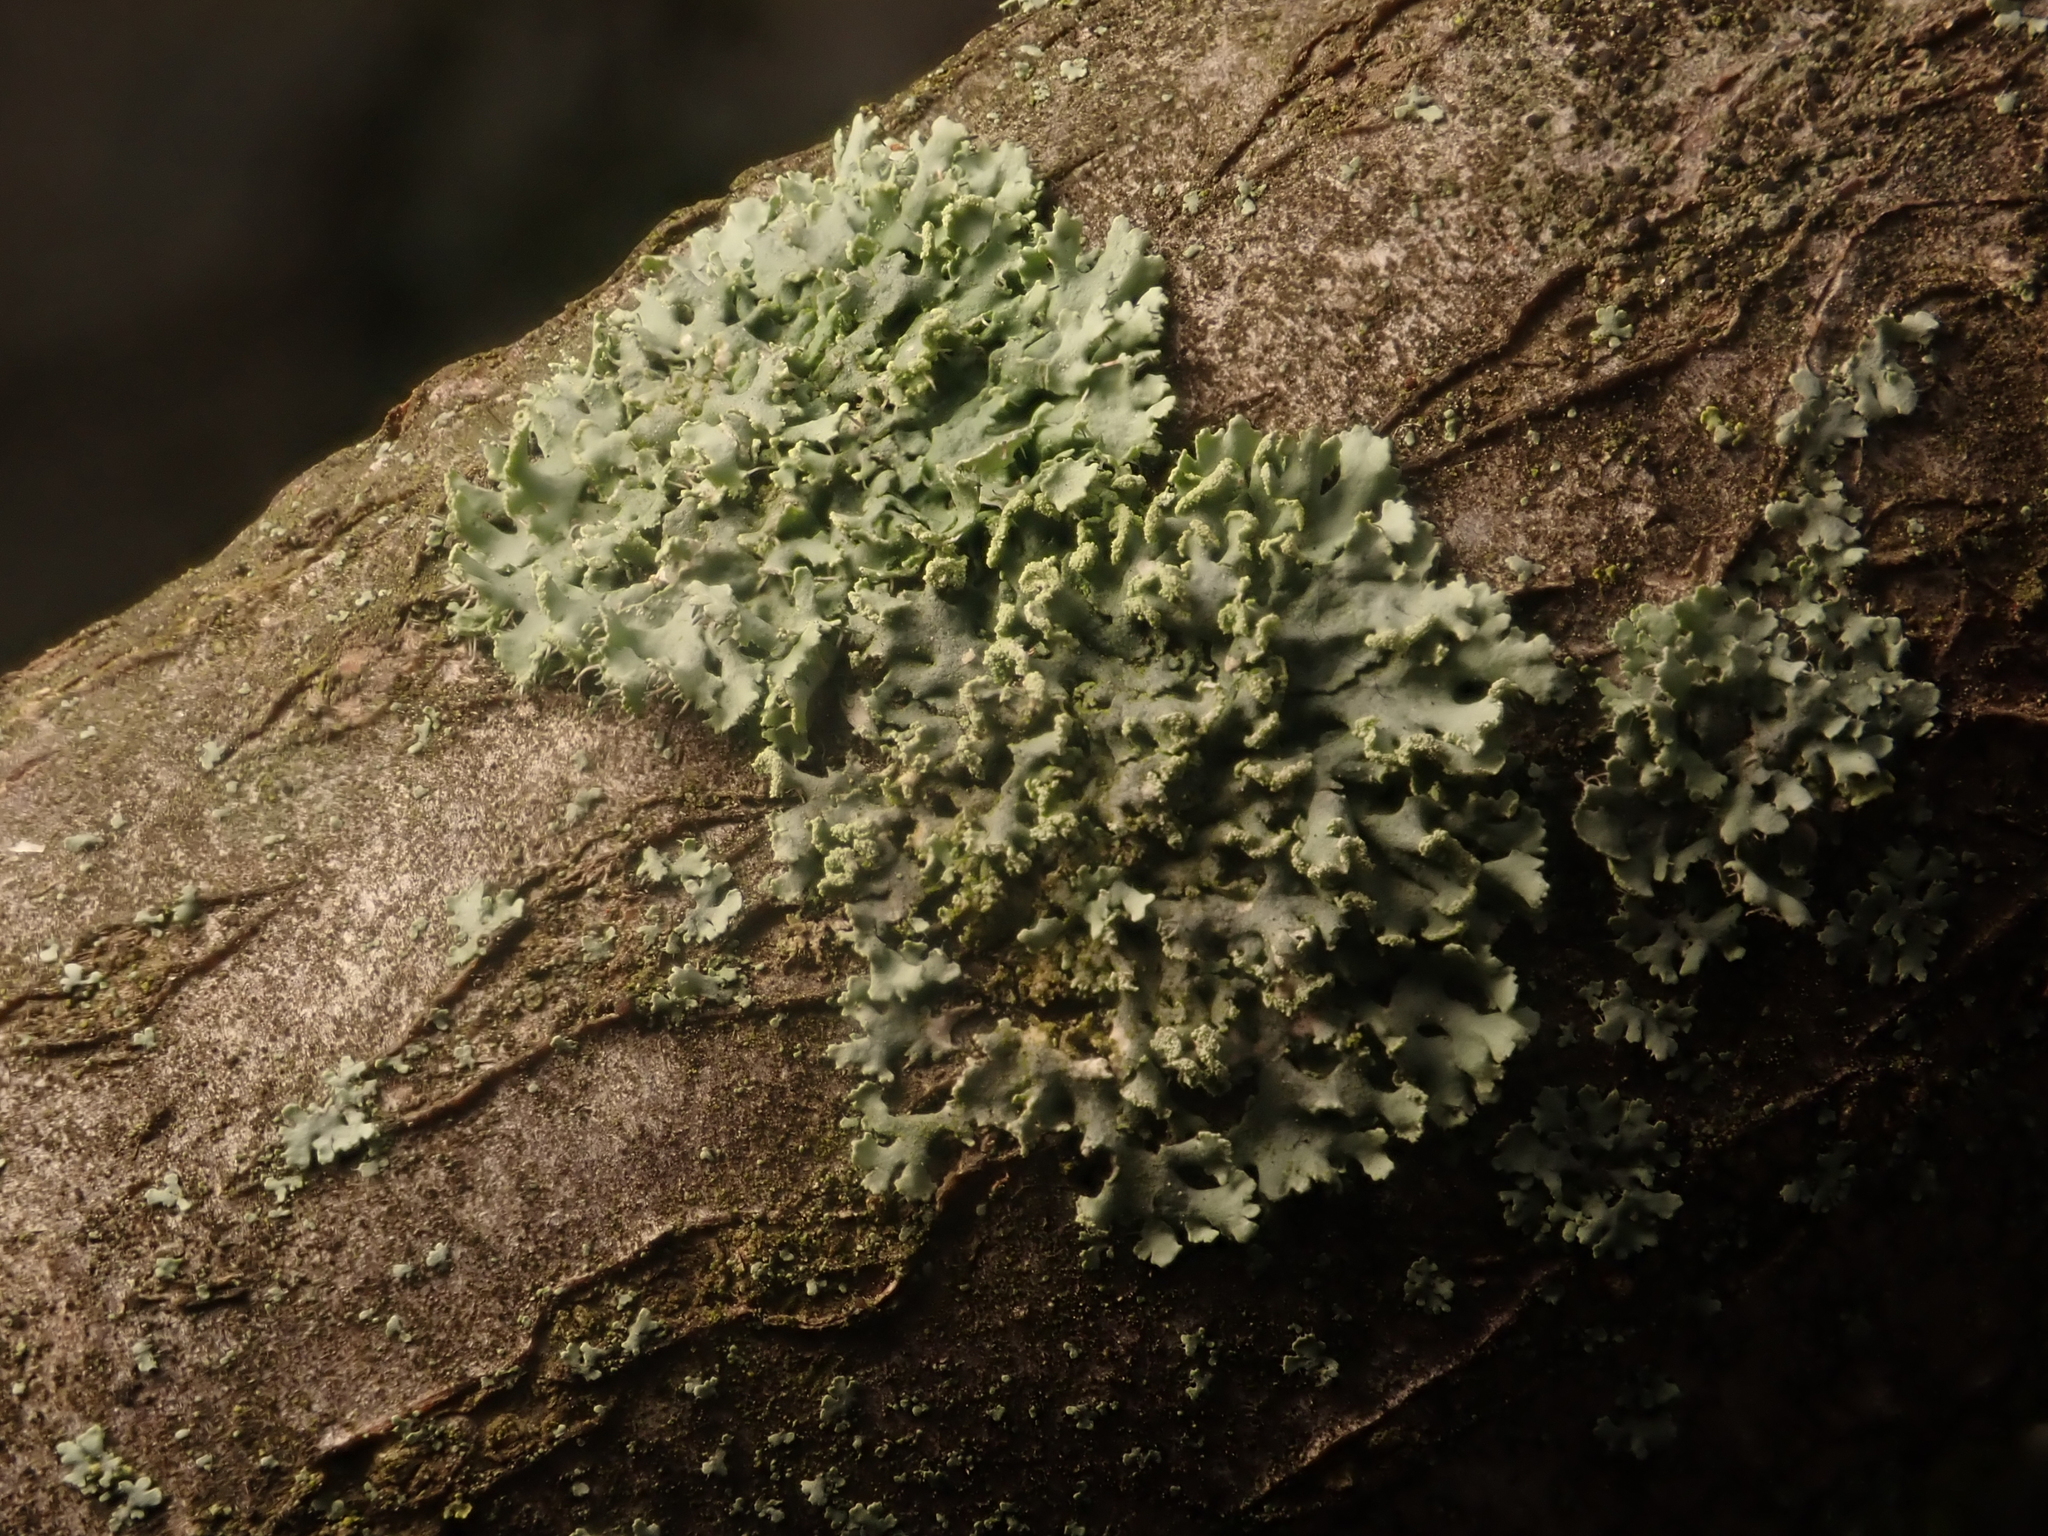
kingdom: Fungi
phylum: Ascomycota
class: Lecanoromycetes
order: Caliciales
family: Physciaceae
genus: Physcia
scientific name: Physcia tenella
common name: Fringed rosette lichen
